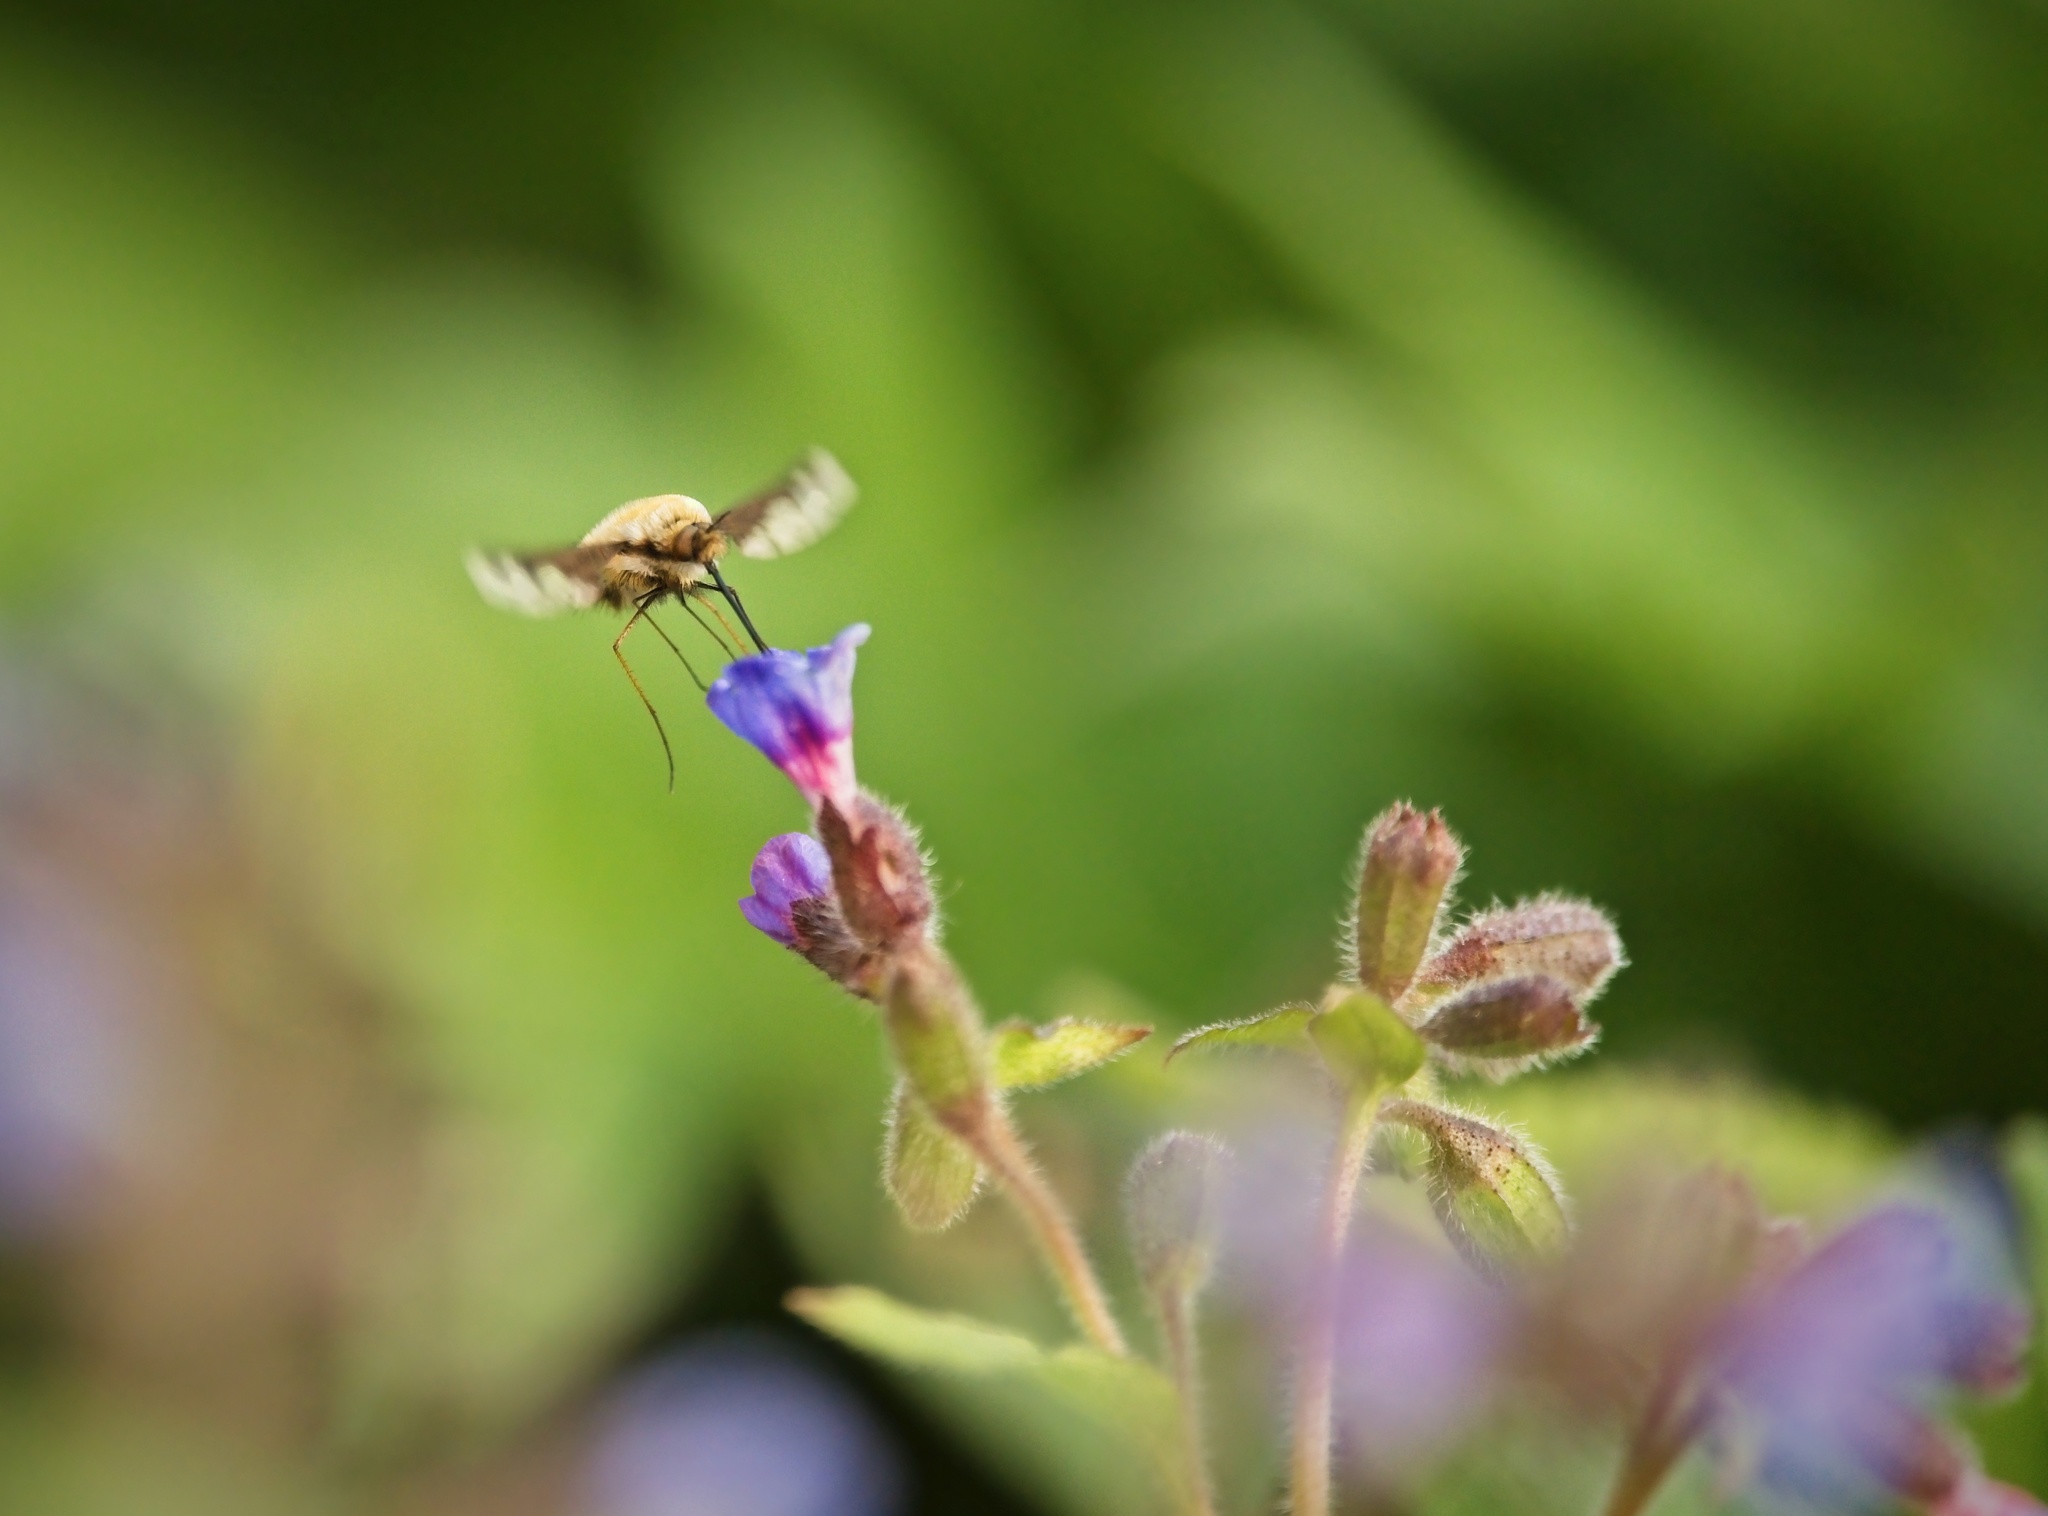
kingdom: Animalia
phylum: Arthropoda
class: Insecta
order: Diptera
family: Bombyliidae
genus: Bombylius
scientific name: Bombylius major
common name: Bee fly
